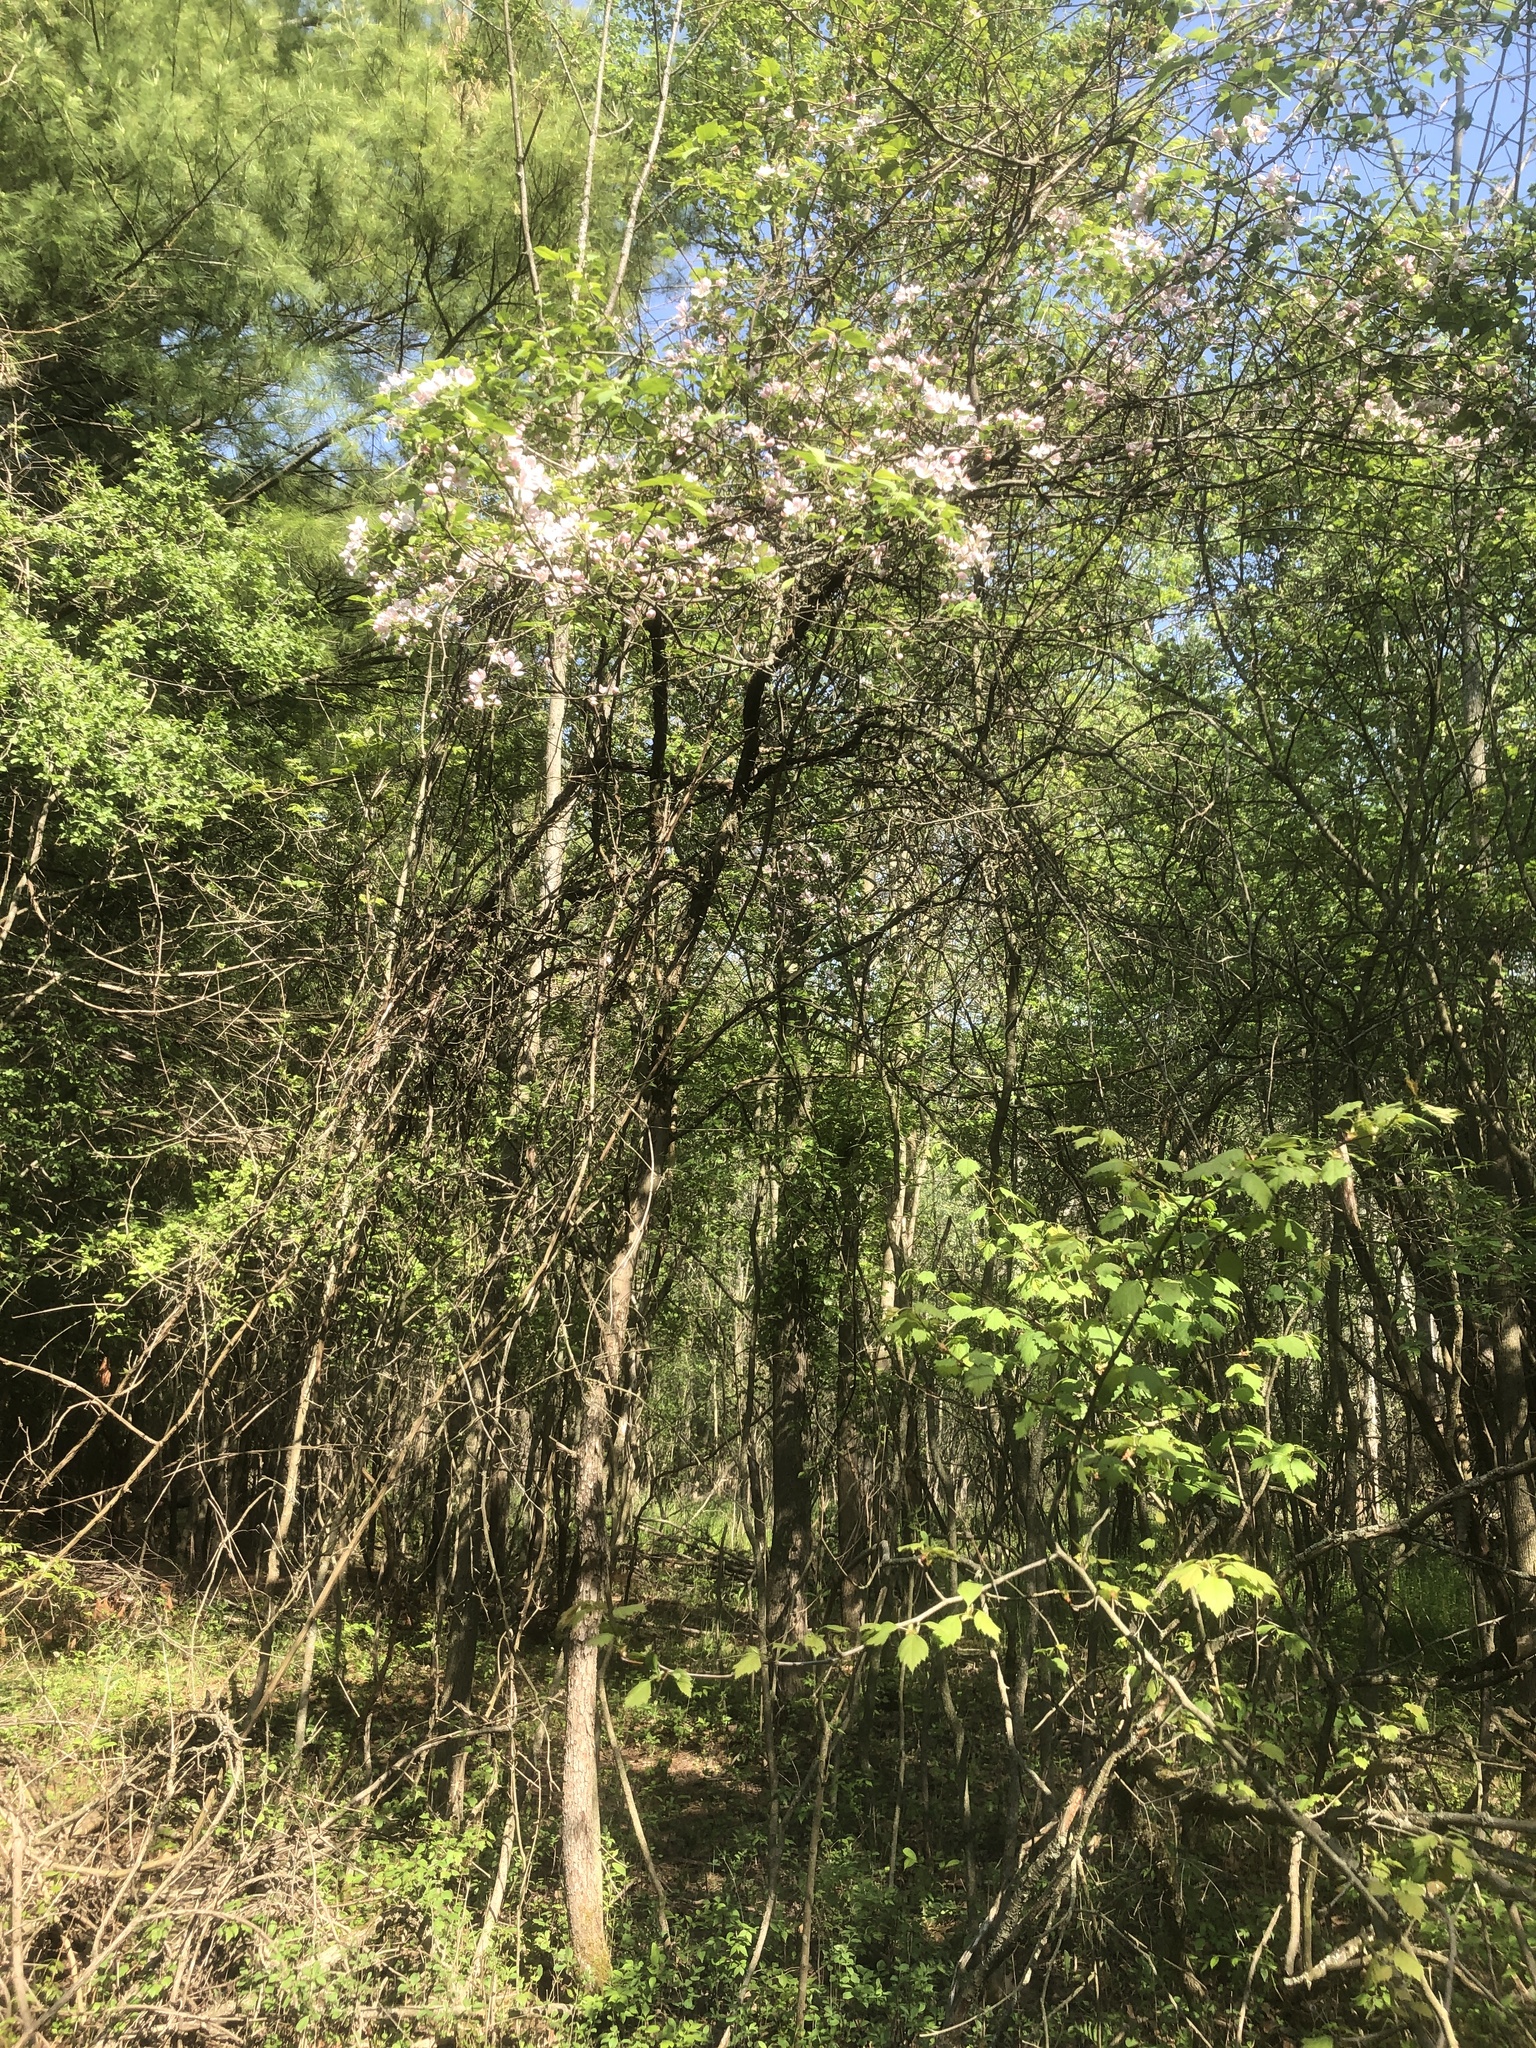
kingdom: Plantae
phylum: Tracheophyta
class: Magnoliopsida
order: Rosales
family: Rosaceae
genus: Malus
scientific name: Malus coronaria
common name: Sweet crab apple
